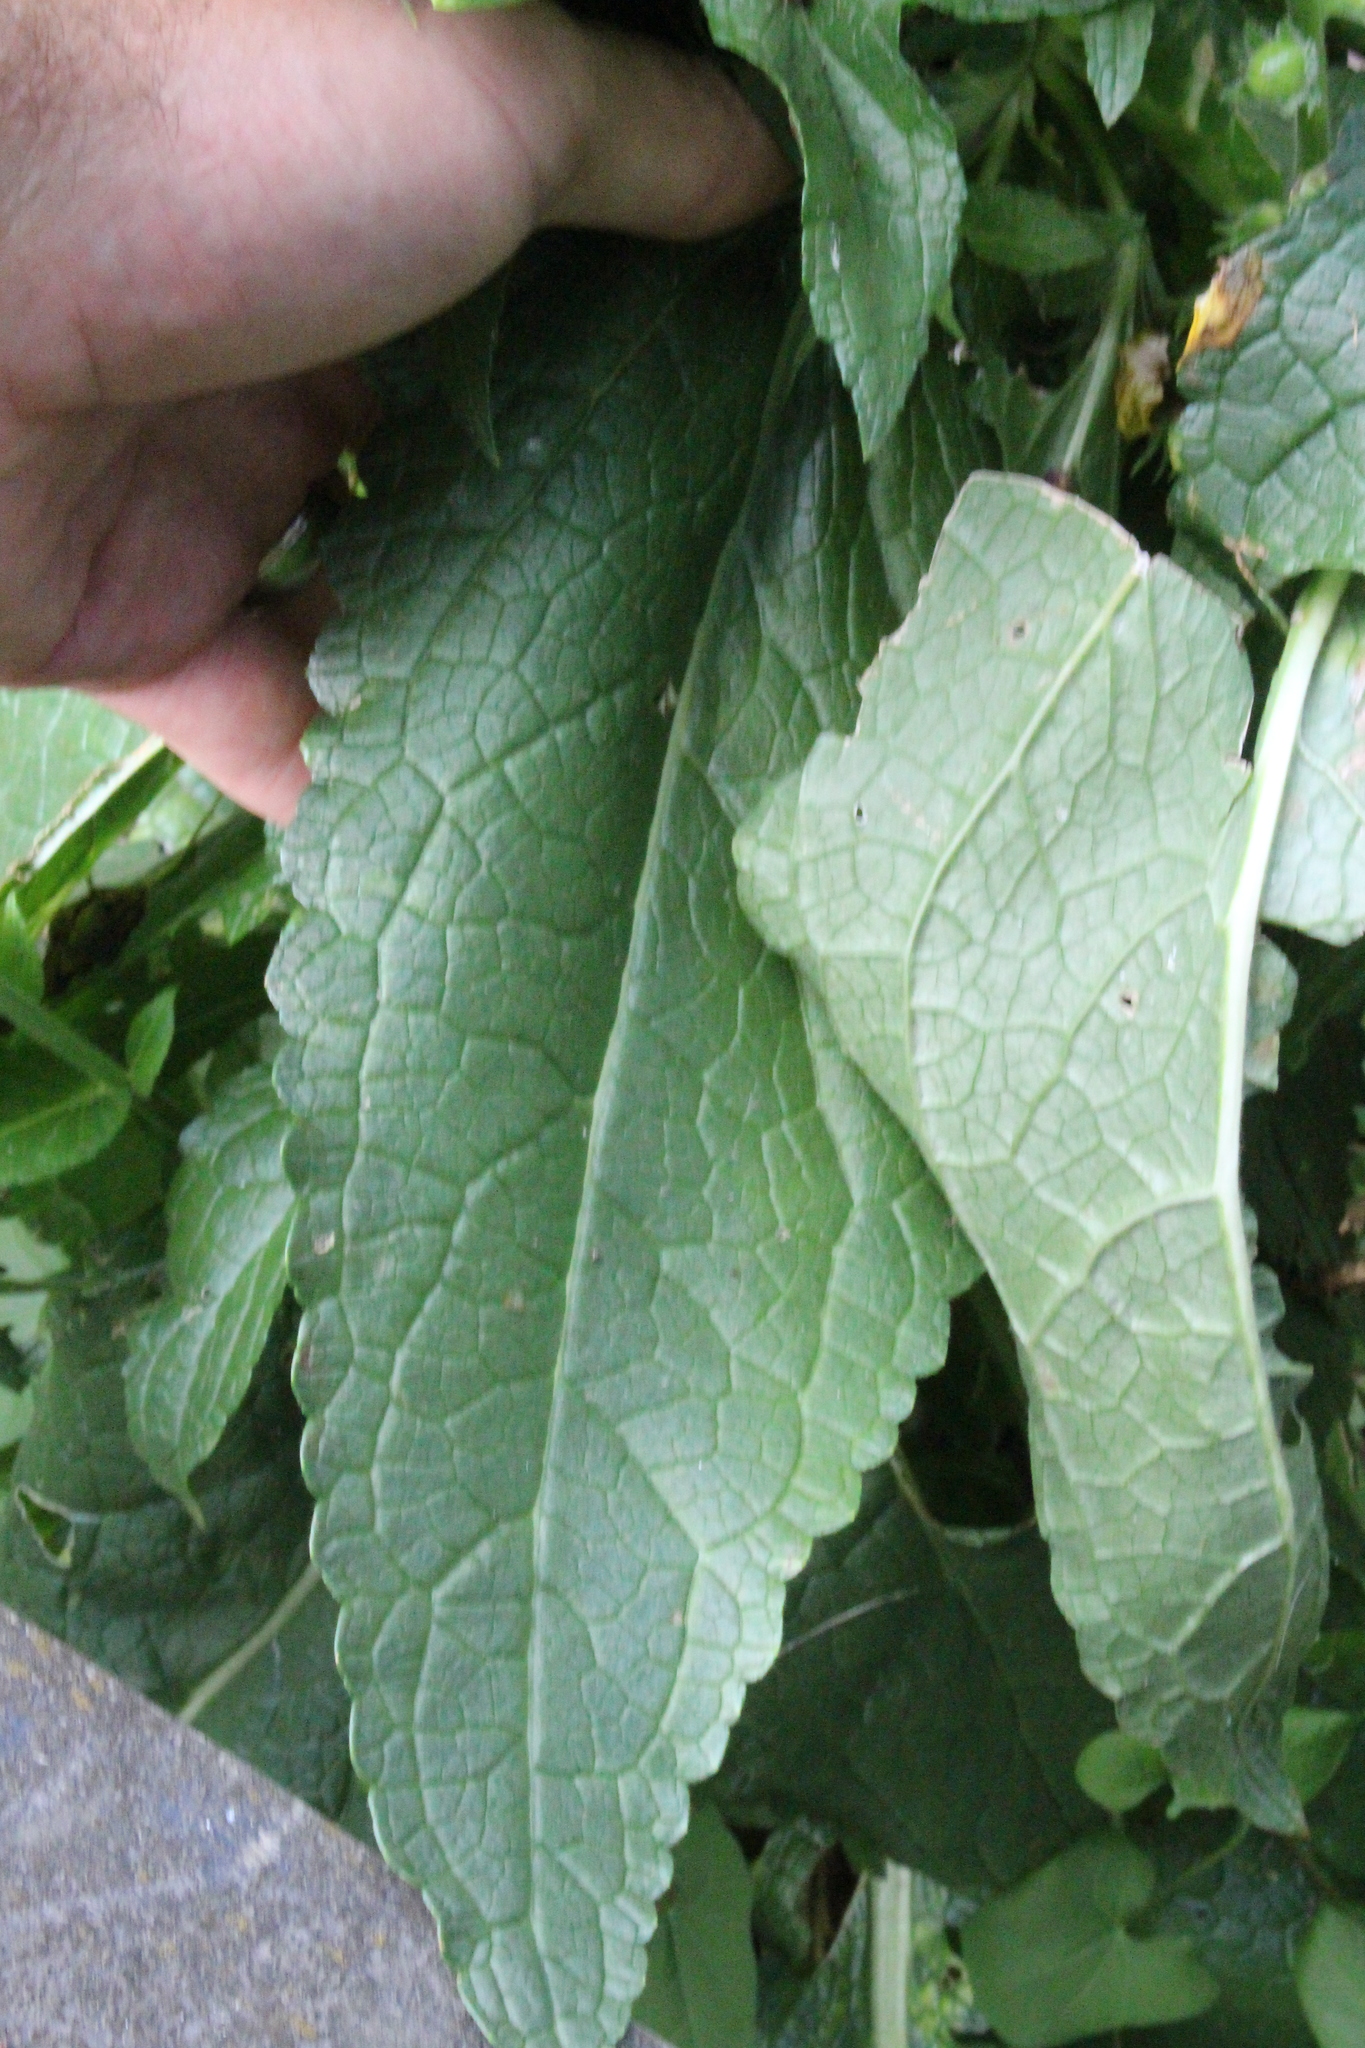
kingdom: Plantae
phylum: Tracheophyta
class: Magnoliopsida
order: Lamiales
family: Scrophulariaceae
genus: Verbascum
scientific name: Verbascum virgatum
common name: Twiggy mullein
